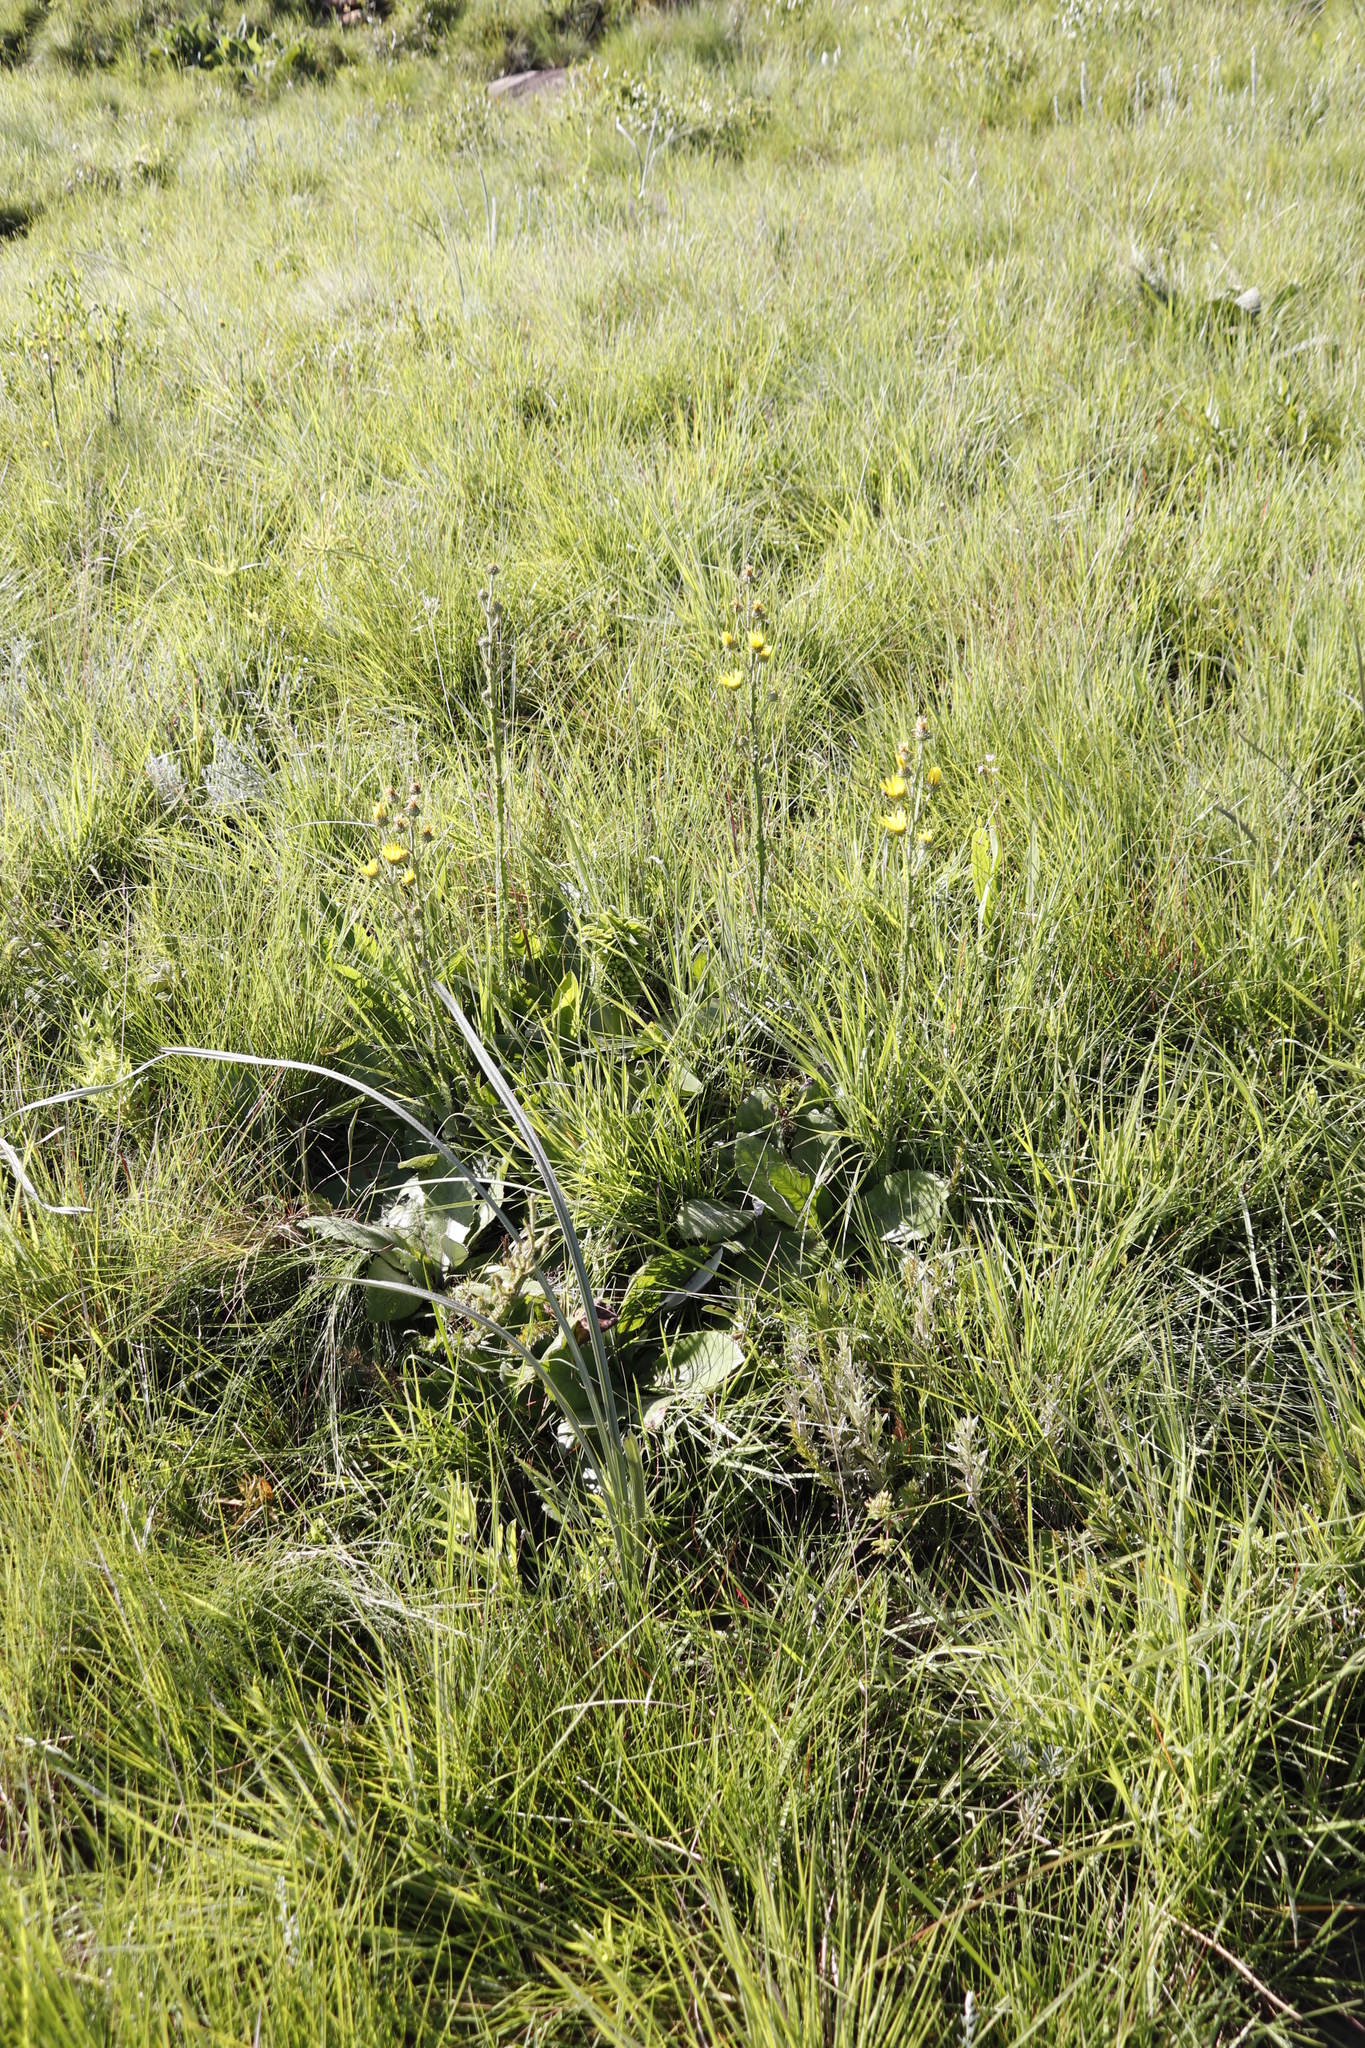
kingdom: Plantae
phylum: Tracheophyta
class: Magnoliopsida
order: Asterales
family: Asteraceae
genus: Berkheya
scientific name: Berkheya rhapontica
